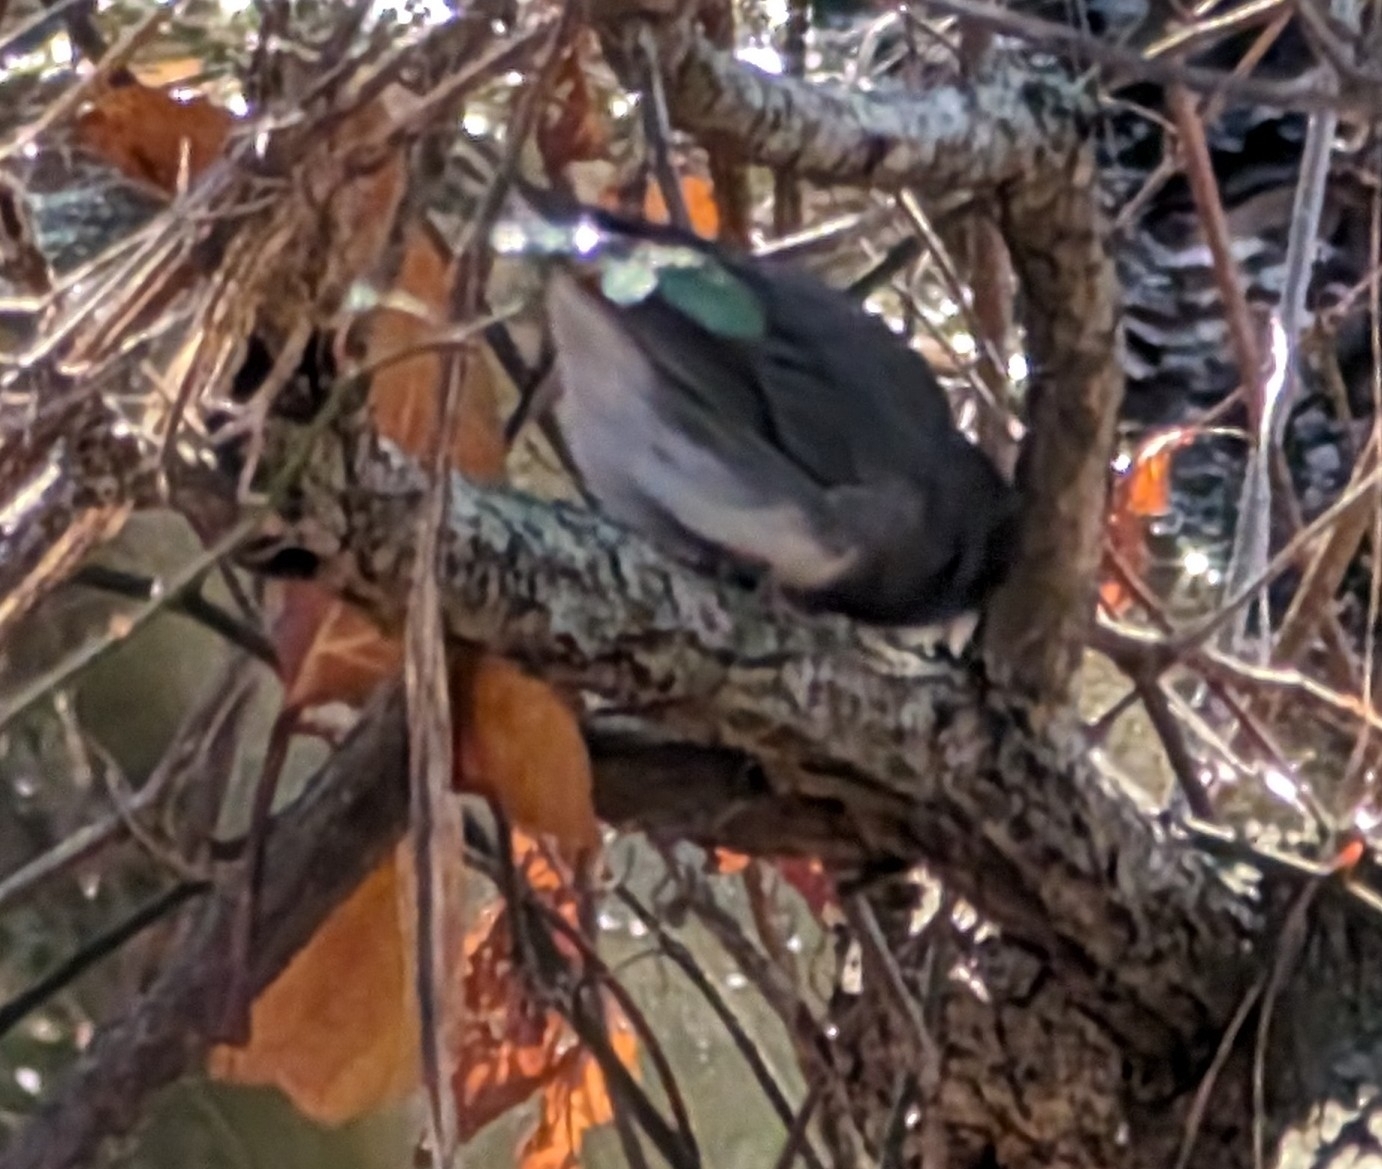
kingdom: Animalia
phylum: Chordata
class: Aves
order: Passeriformes
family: Passerellidae
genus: Junco
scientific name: Junco hyemalis
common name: Dark-eyed junco
